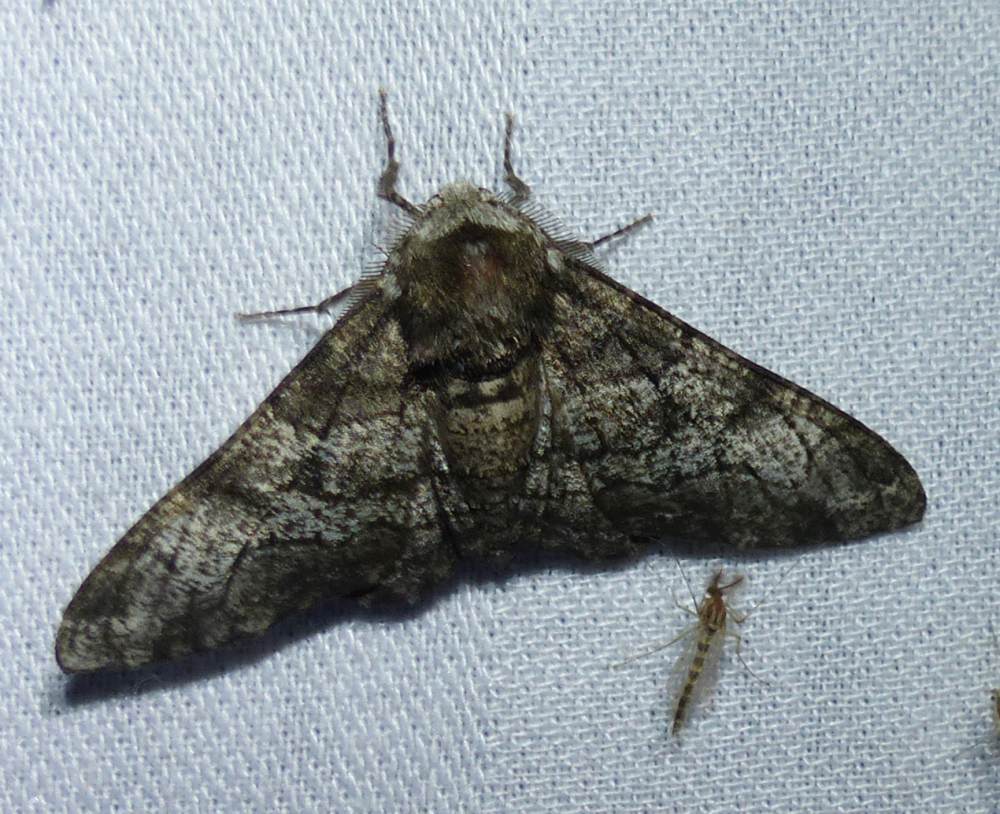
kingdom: Animalia
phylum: Arthropoda
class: Insecta
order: Lepidoptera
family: Geometridae
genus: Biston
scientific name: Biston betularia
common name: Peppered moth
